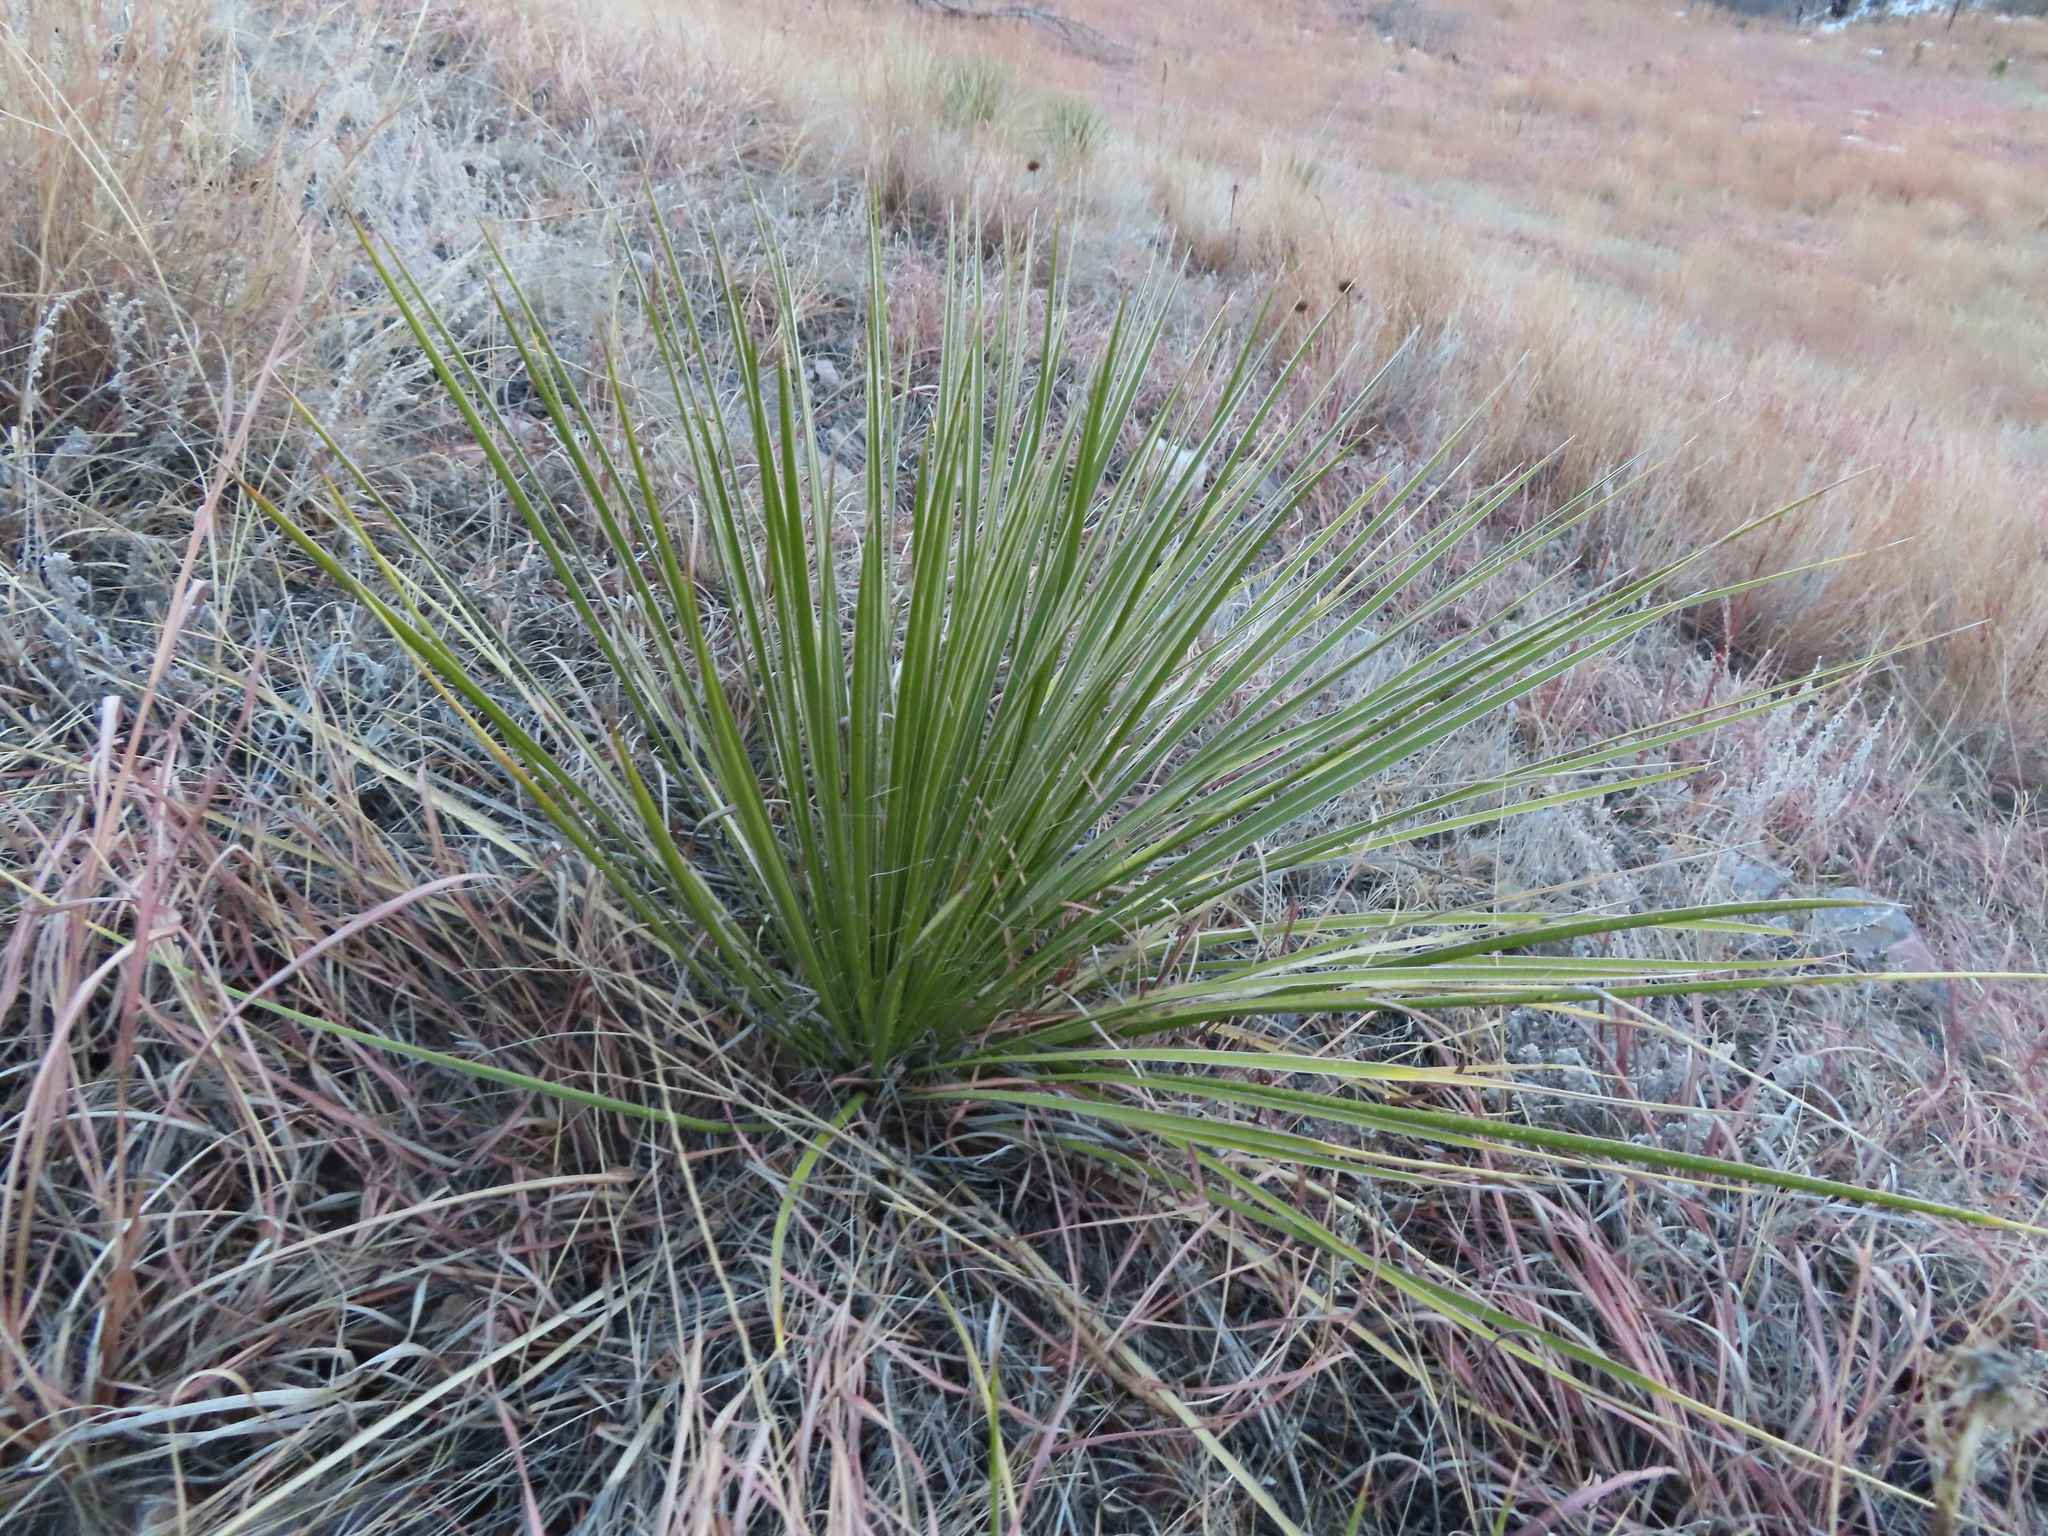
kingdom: Plantae
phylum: Tracheophyta
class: Liliopsida
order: Asparagales
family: Asparagaceae
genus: Yucca
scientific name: Yucca glauca
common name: Great plains yucca
